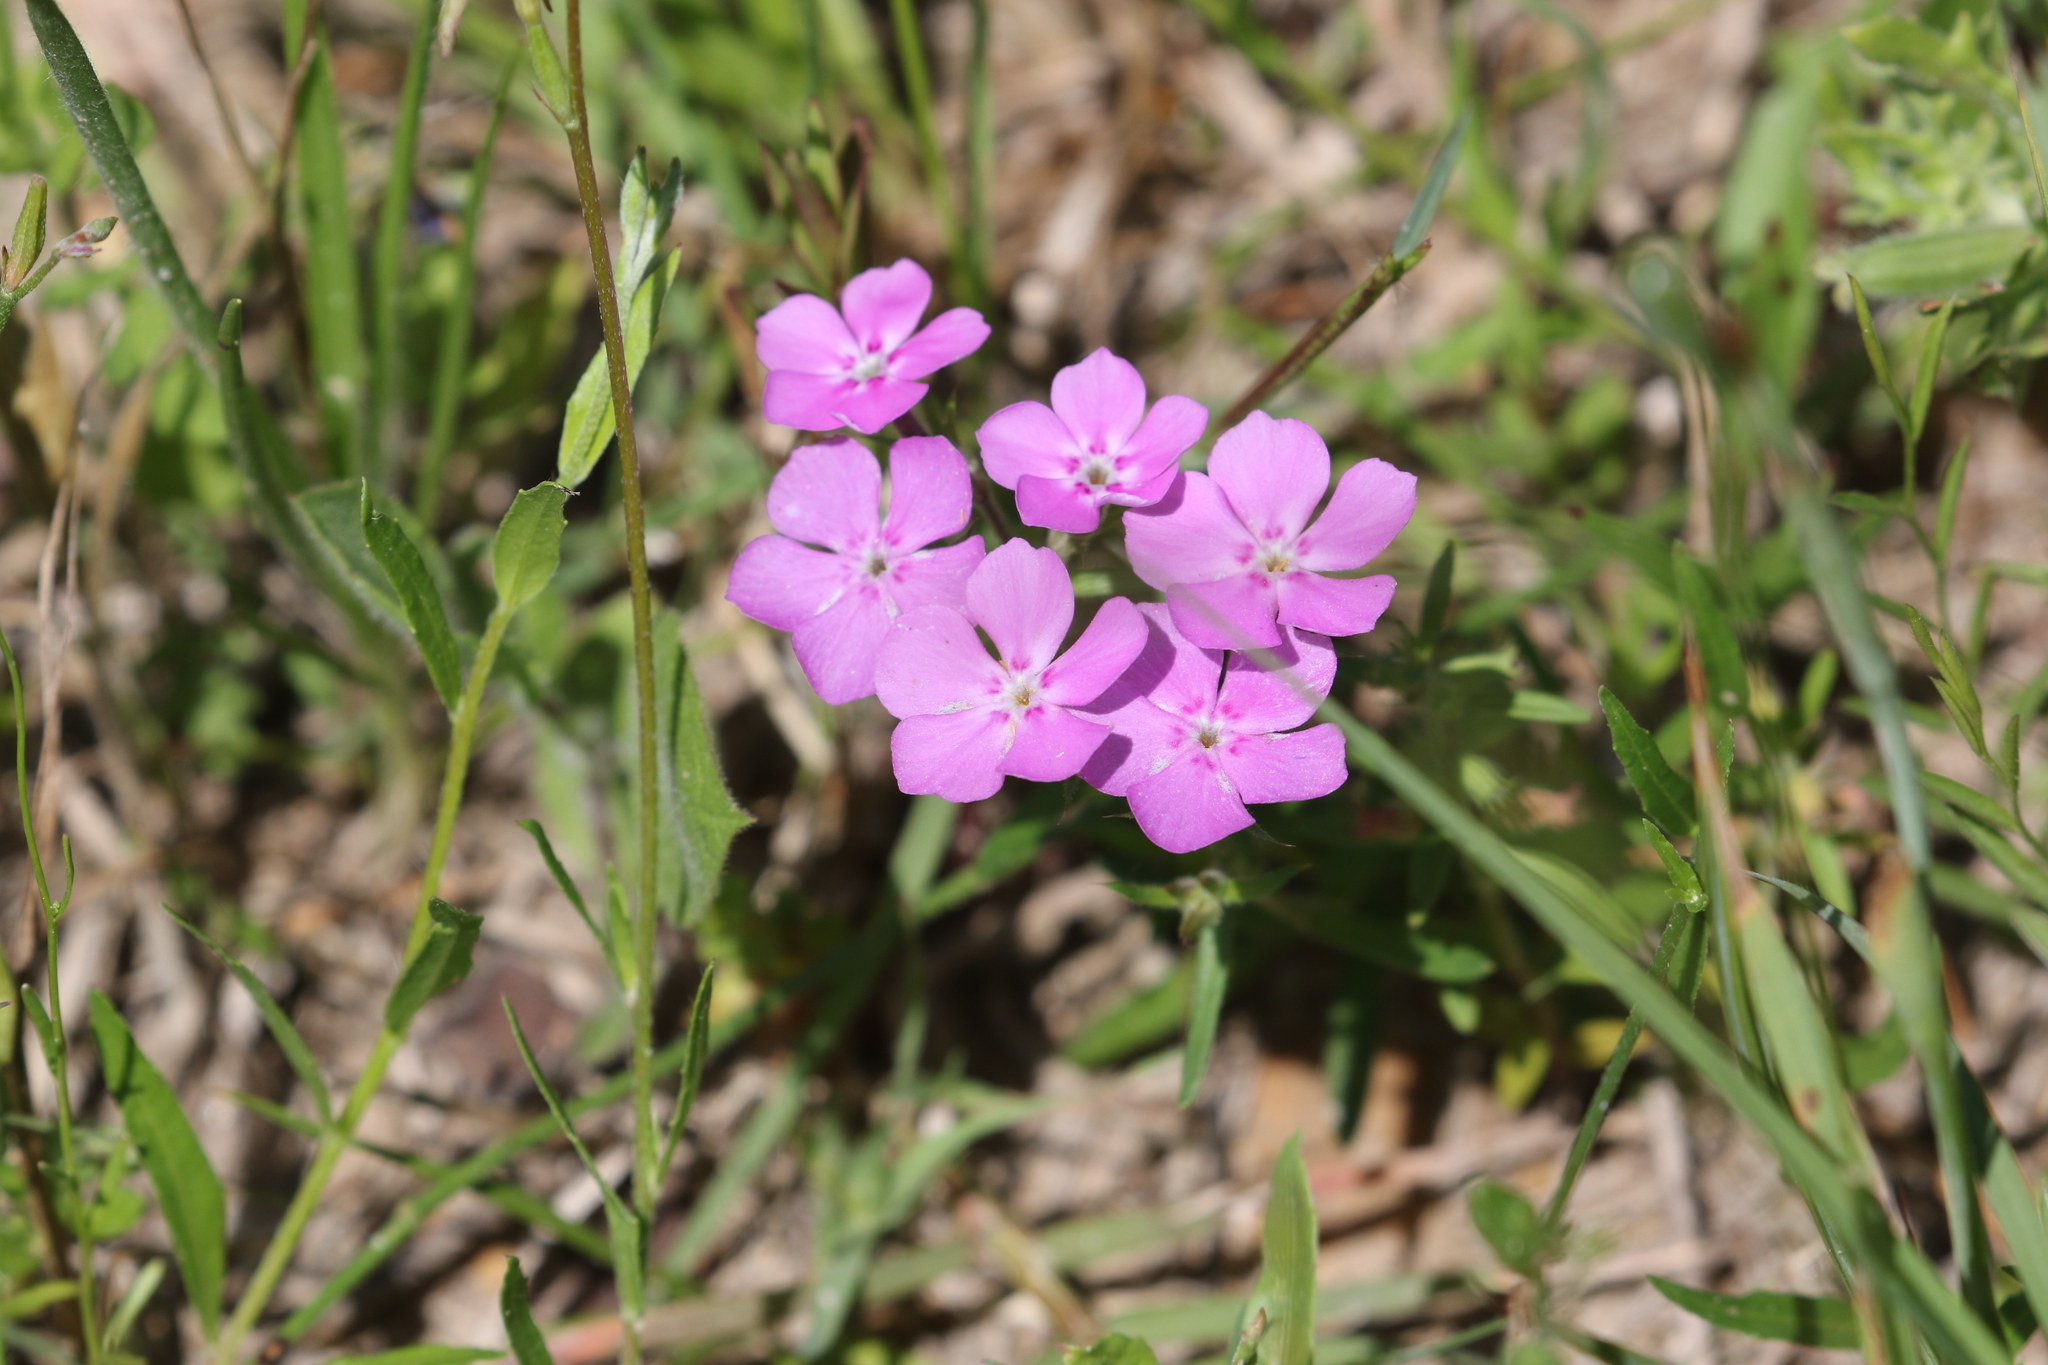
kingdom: Plantae
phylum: Tracheophyta
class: Magnoliopsida
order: Ericales
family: Polemoniaceae
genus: Phlox
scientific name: Phlox cuspidata
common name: Pointed phlox
